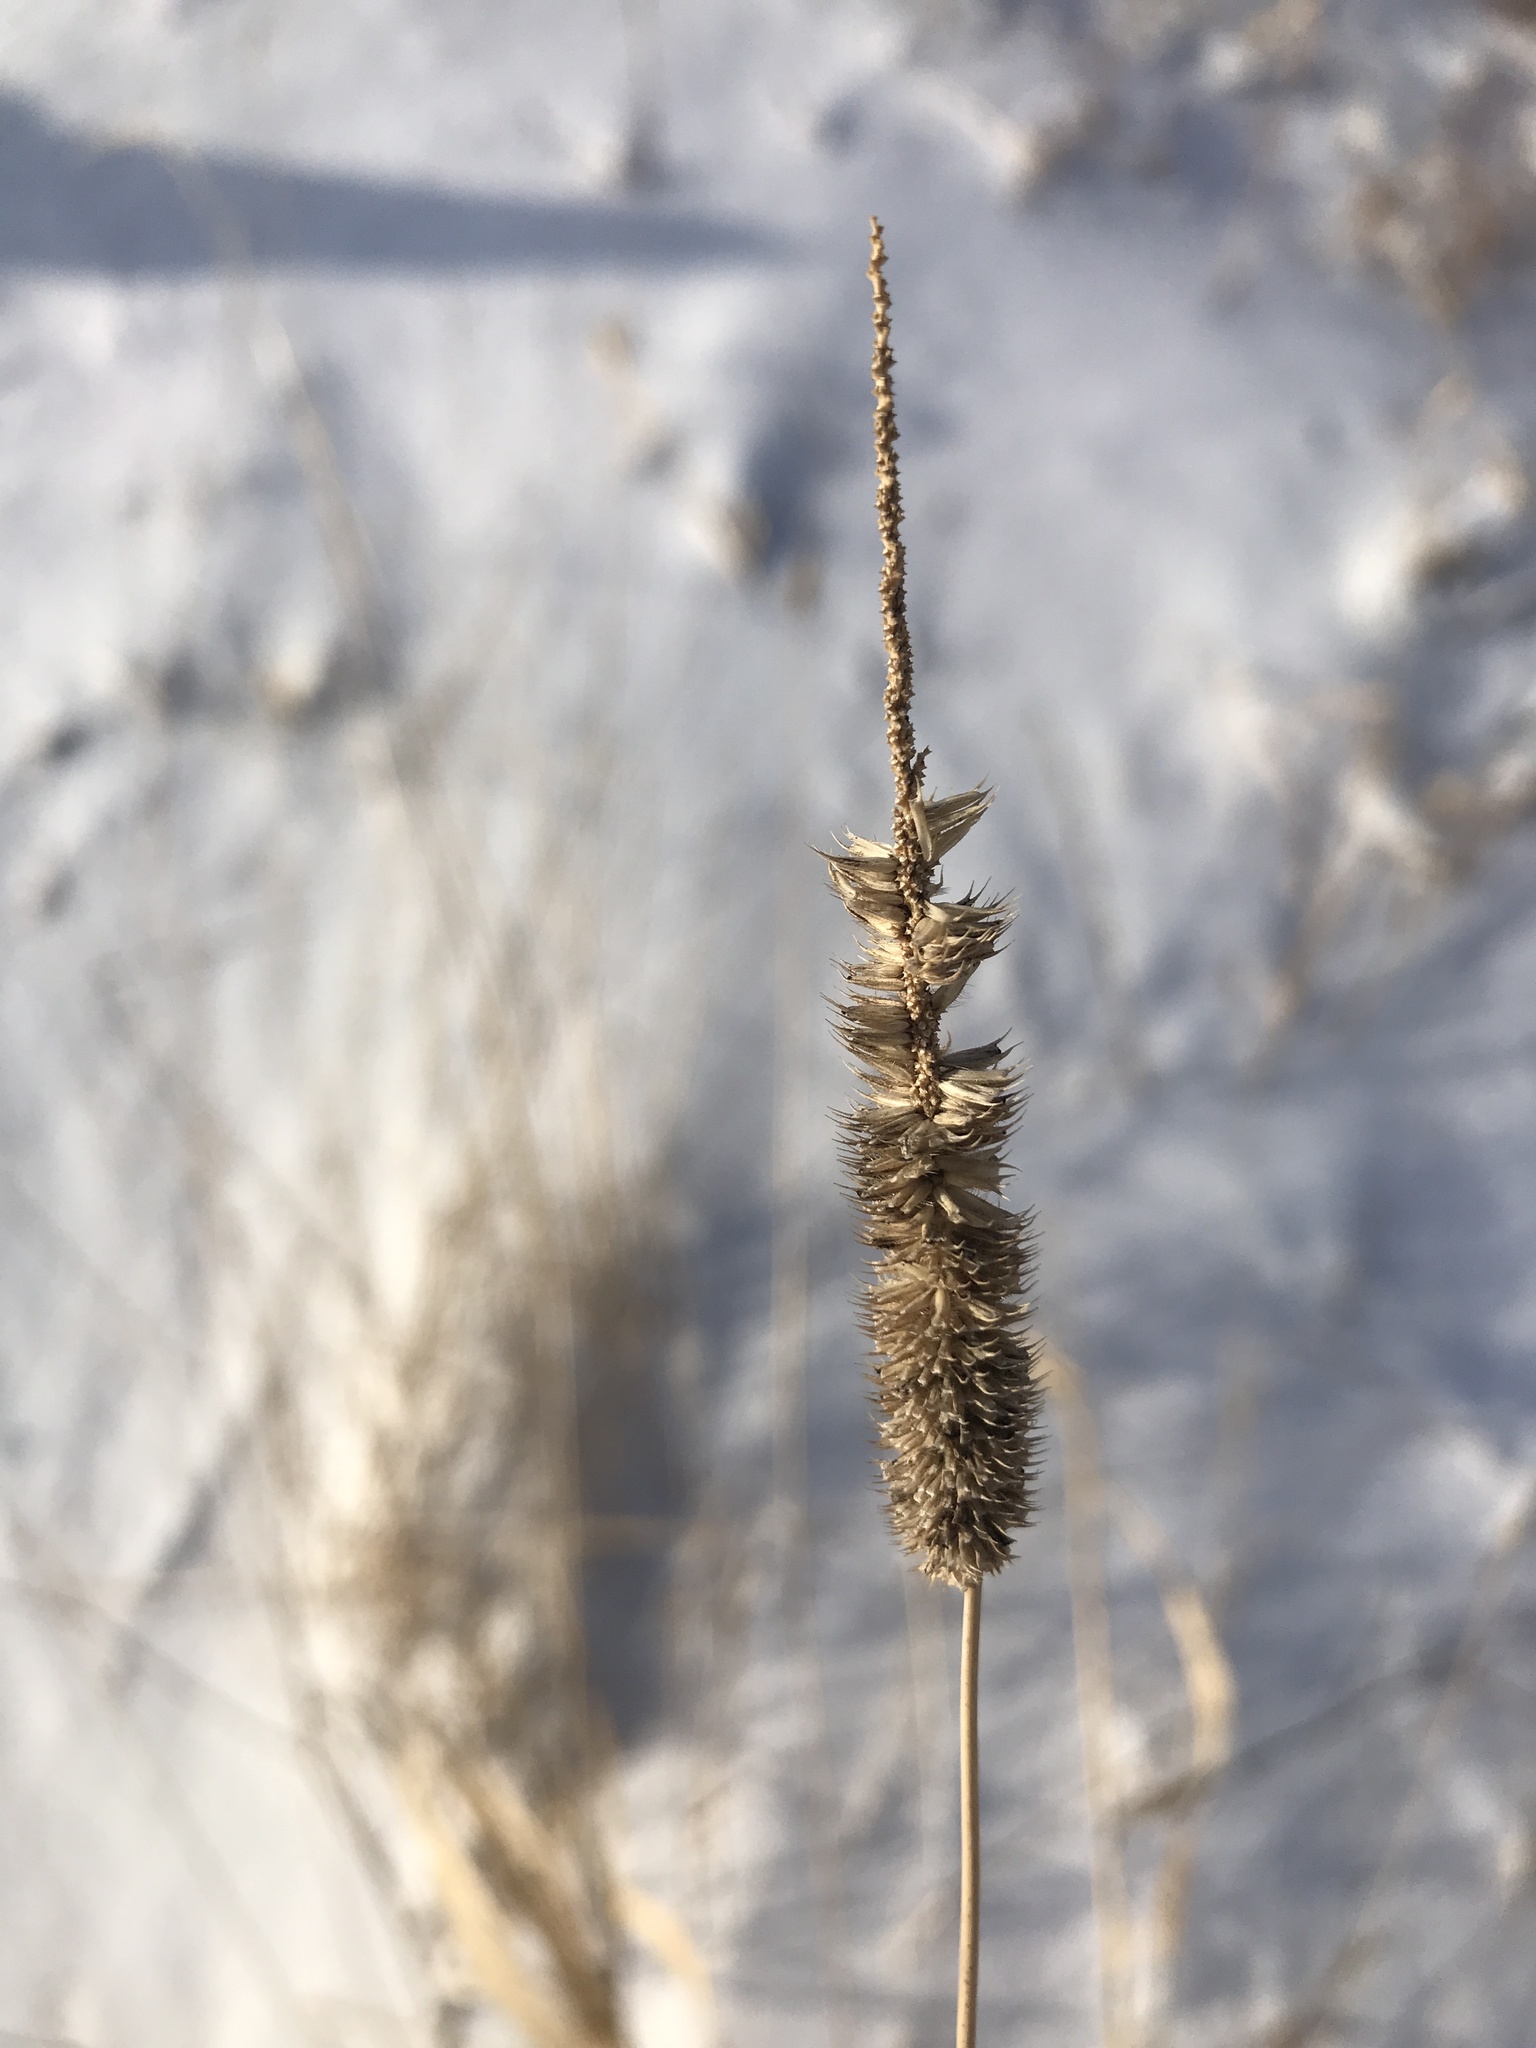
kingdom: Plantae
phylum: Tracheophyta
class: Liliopsida
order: Poales
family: Poaceae
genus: Phleum
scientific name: Phleum pratense
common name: Timothy grass
